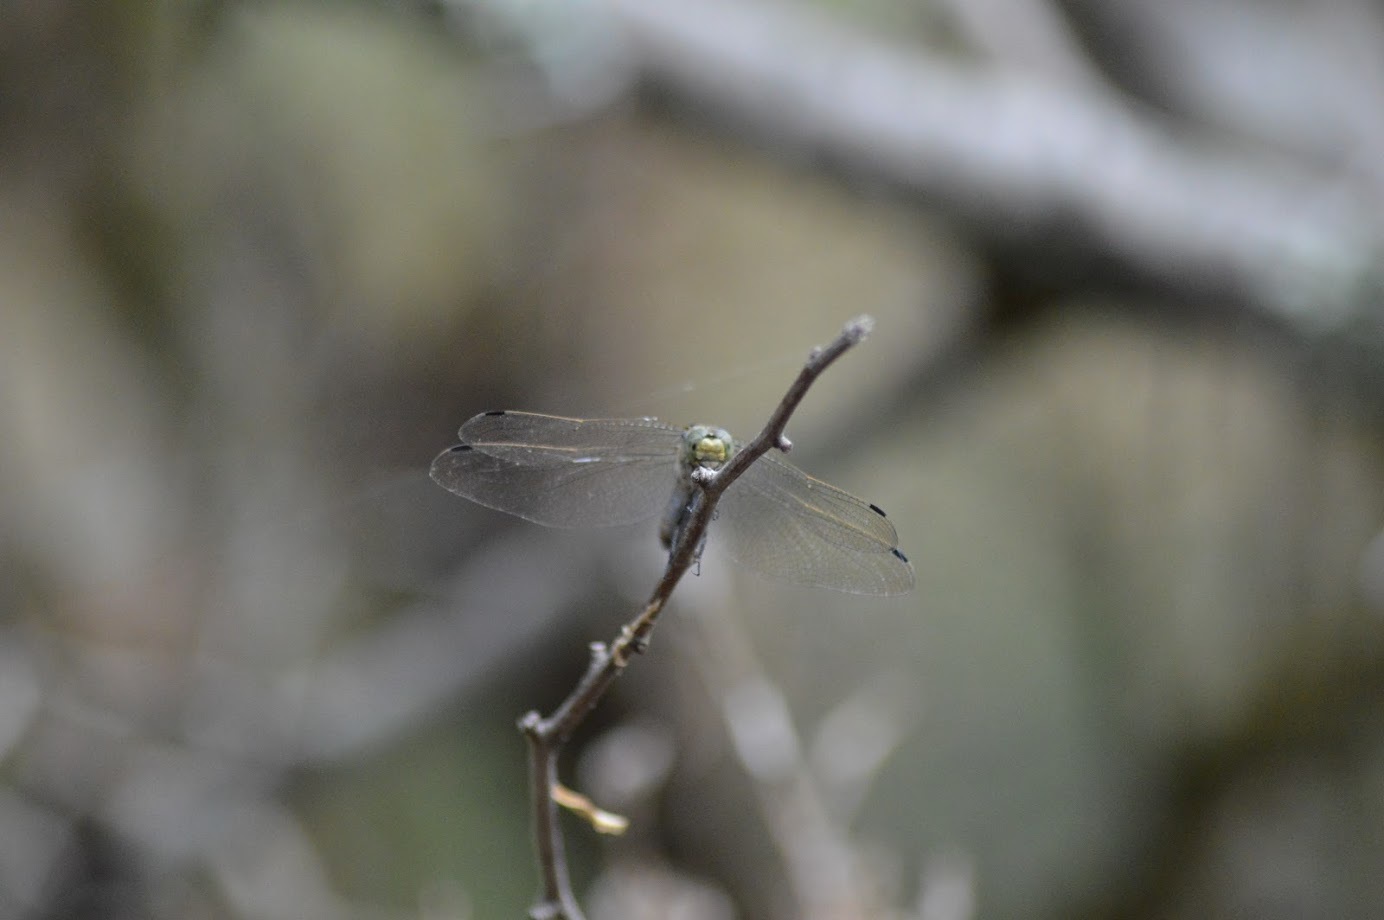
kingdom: Animalia
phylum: Arthropoda
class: Insecta
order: Odonata
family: Libellulidae
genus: Orthetrum
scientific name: Orthetrum cancellatum
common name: Black-tailed skimmer
